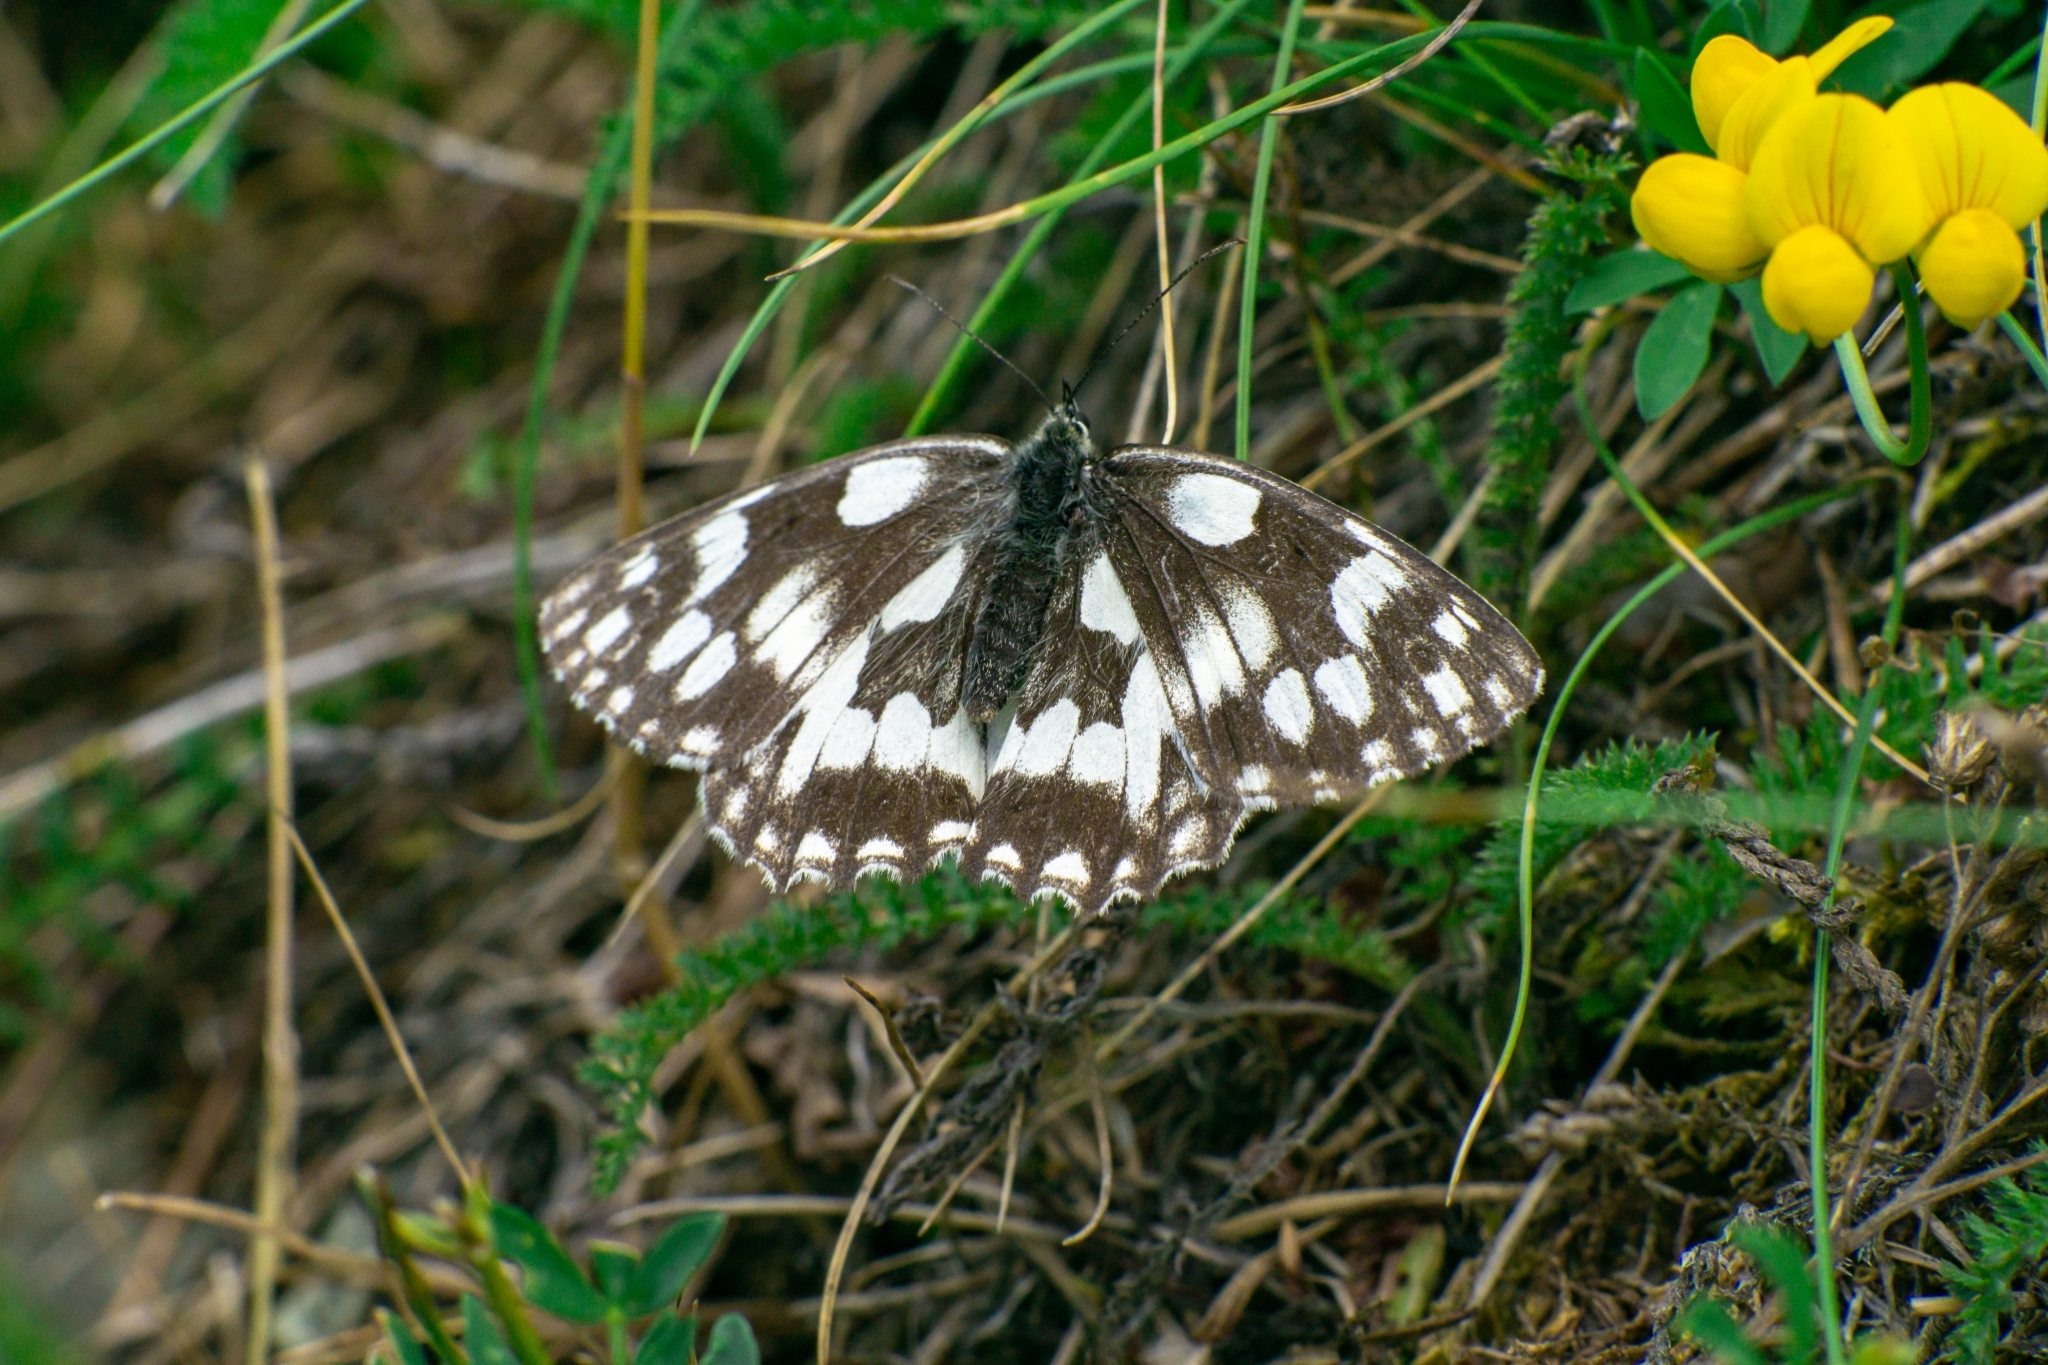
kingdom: Animalia
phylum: Arthropoda
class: Insecta
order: Lepidoptera
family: Nymphalidae
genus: Melanargia
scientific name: Melanargia galathea
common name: Marbled white
